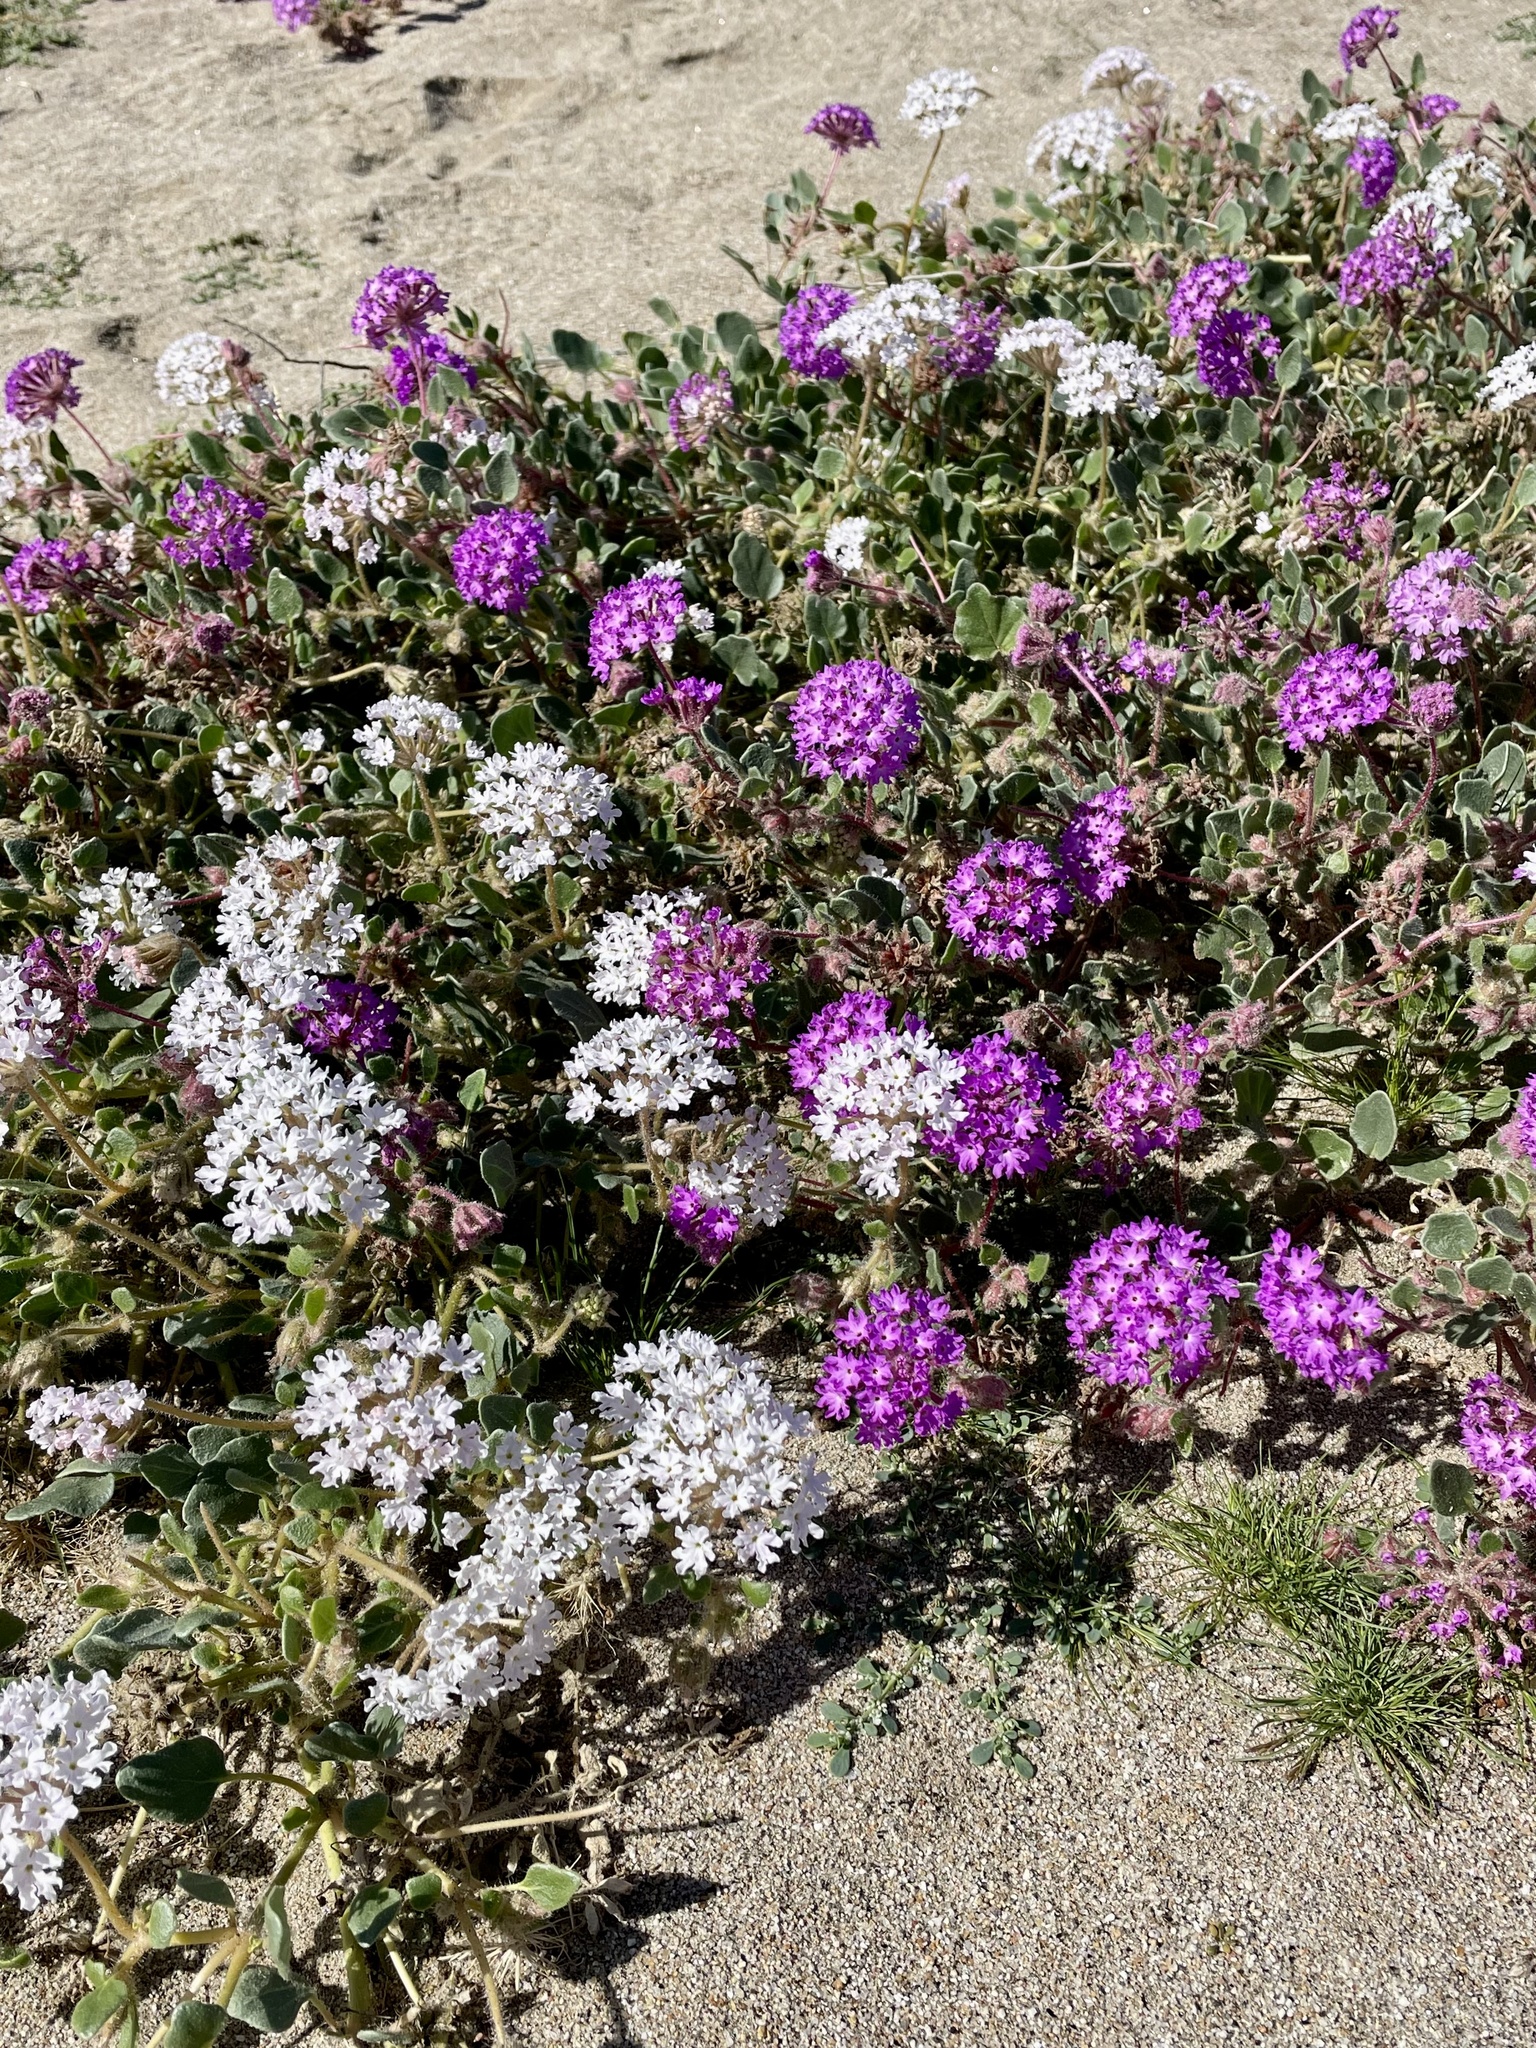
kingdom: Plantae
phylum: Tracheophyta
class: Magnoliopsida
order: Caryophyllales
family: Nyctaginaceae
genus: Abronia
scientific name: Abronia villosa
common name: Desert sand-verbena
